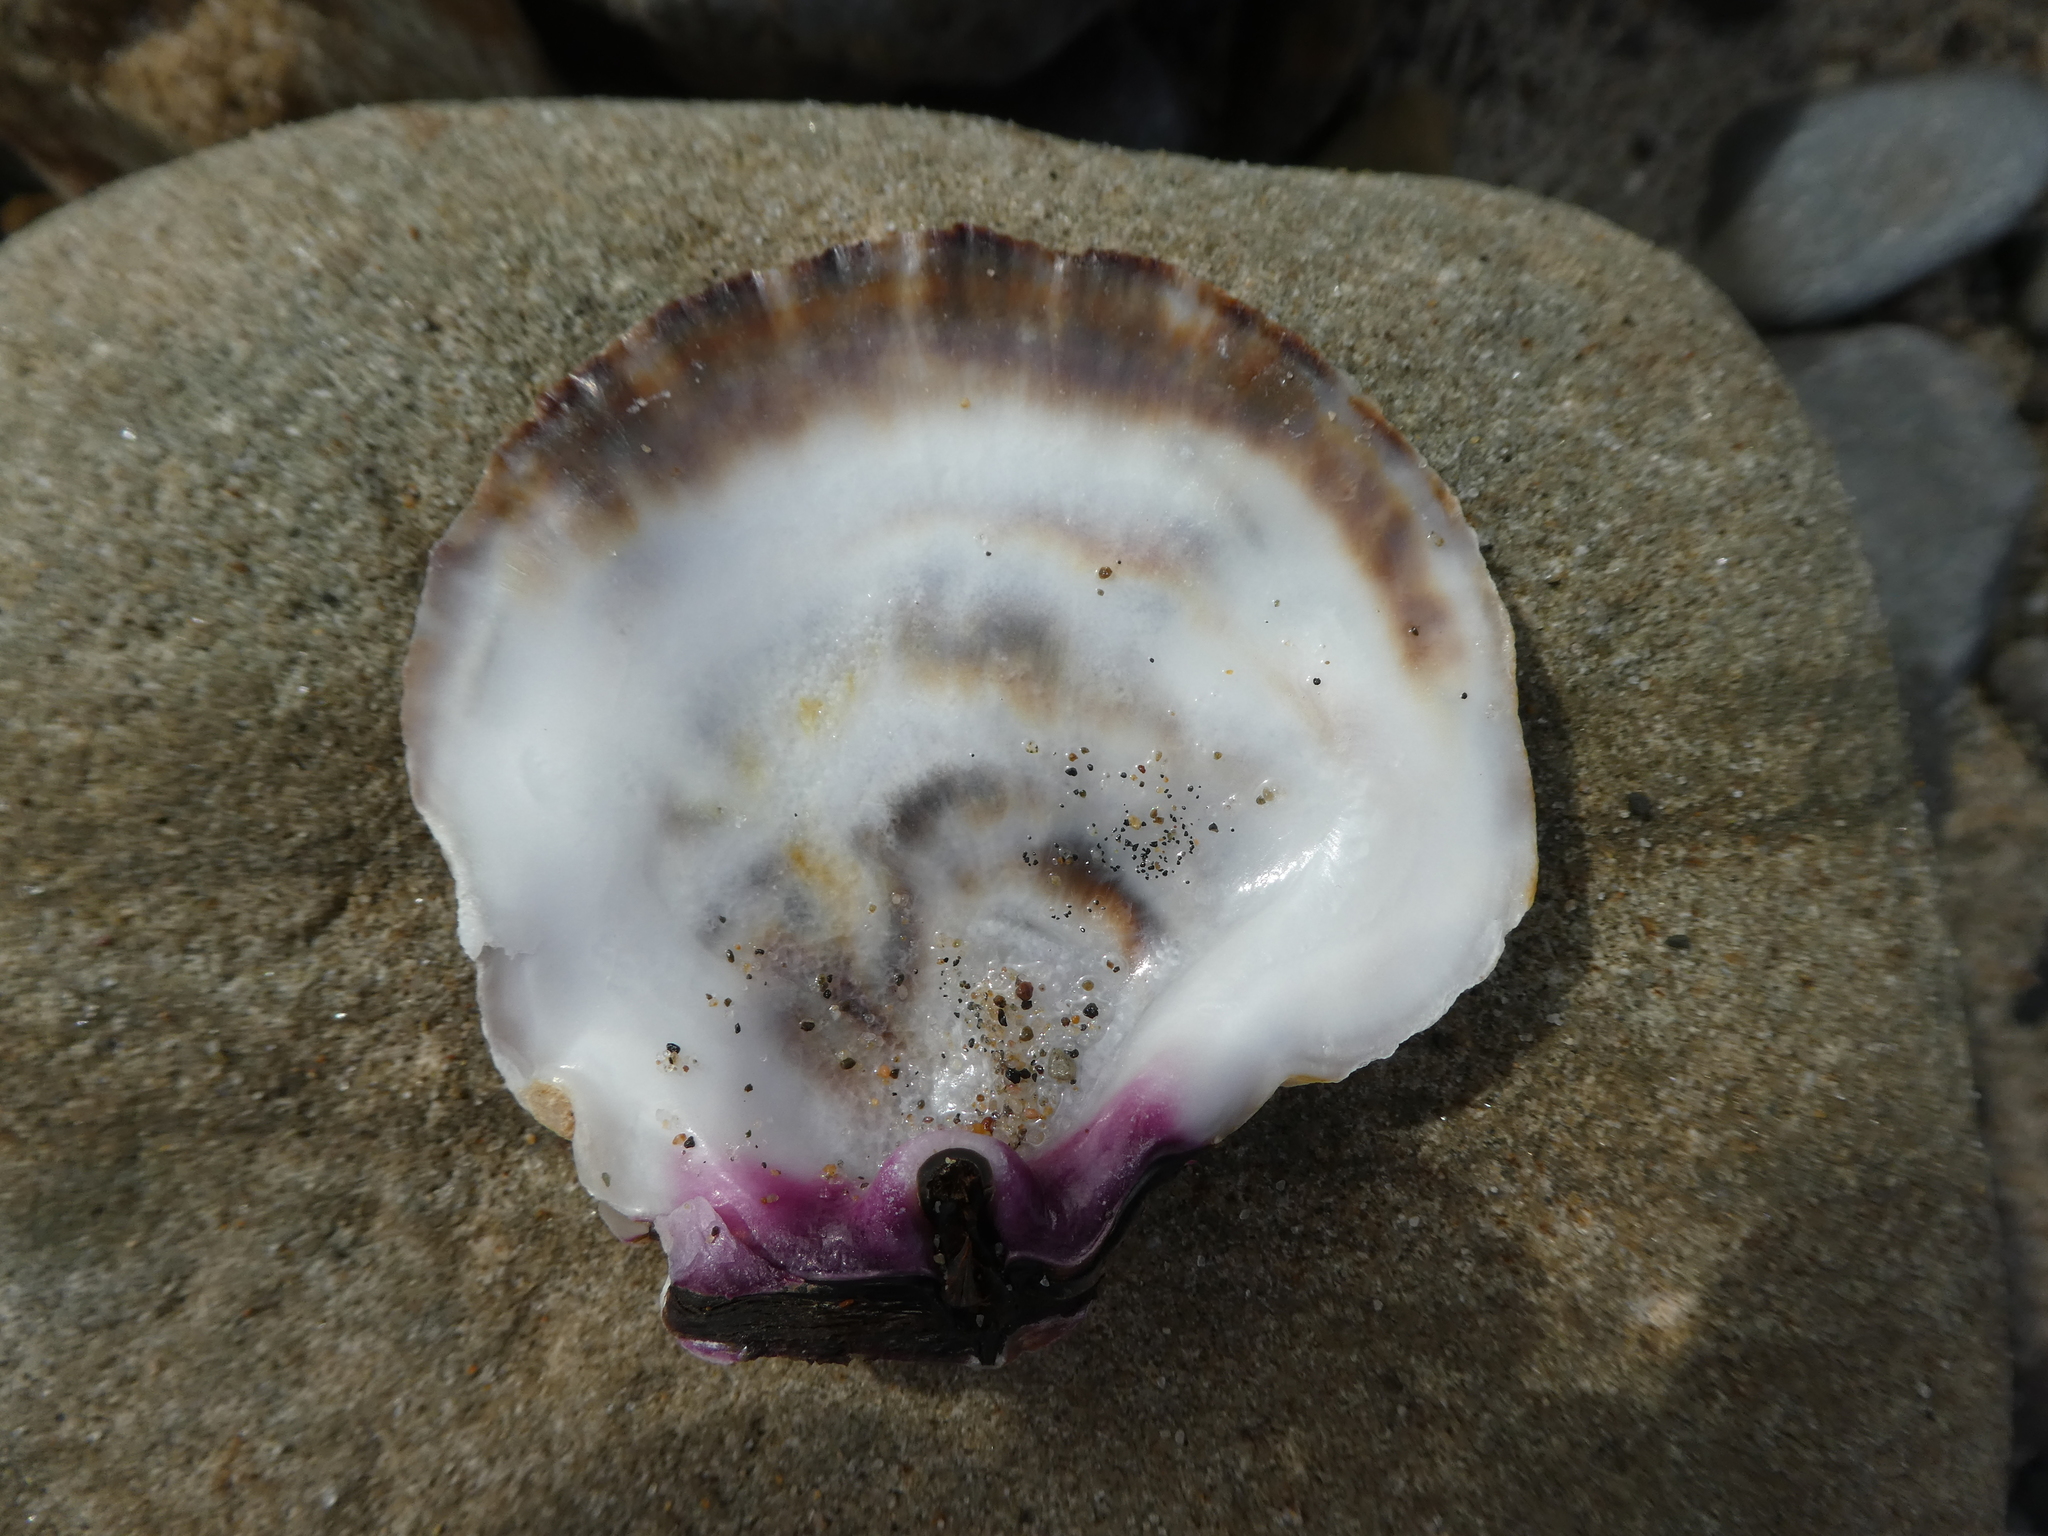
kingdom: Animalia
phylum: Mollusca
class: Bivalvia
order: Pectinida
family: Pectinidae
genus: Crassadoma
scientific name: Crassadoma gigantea
